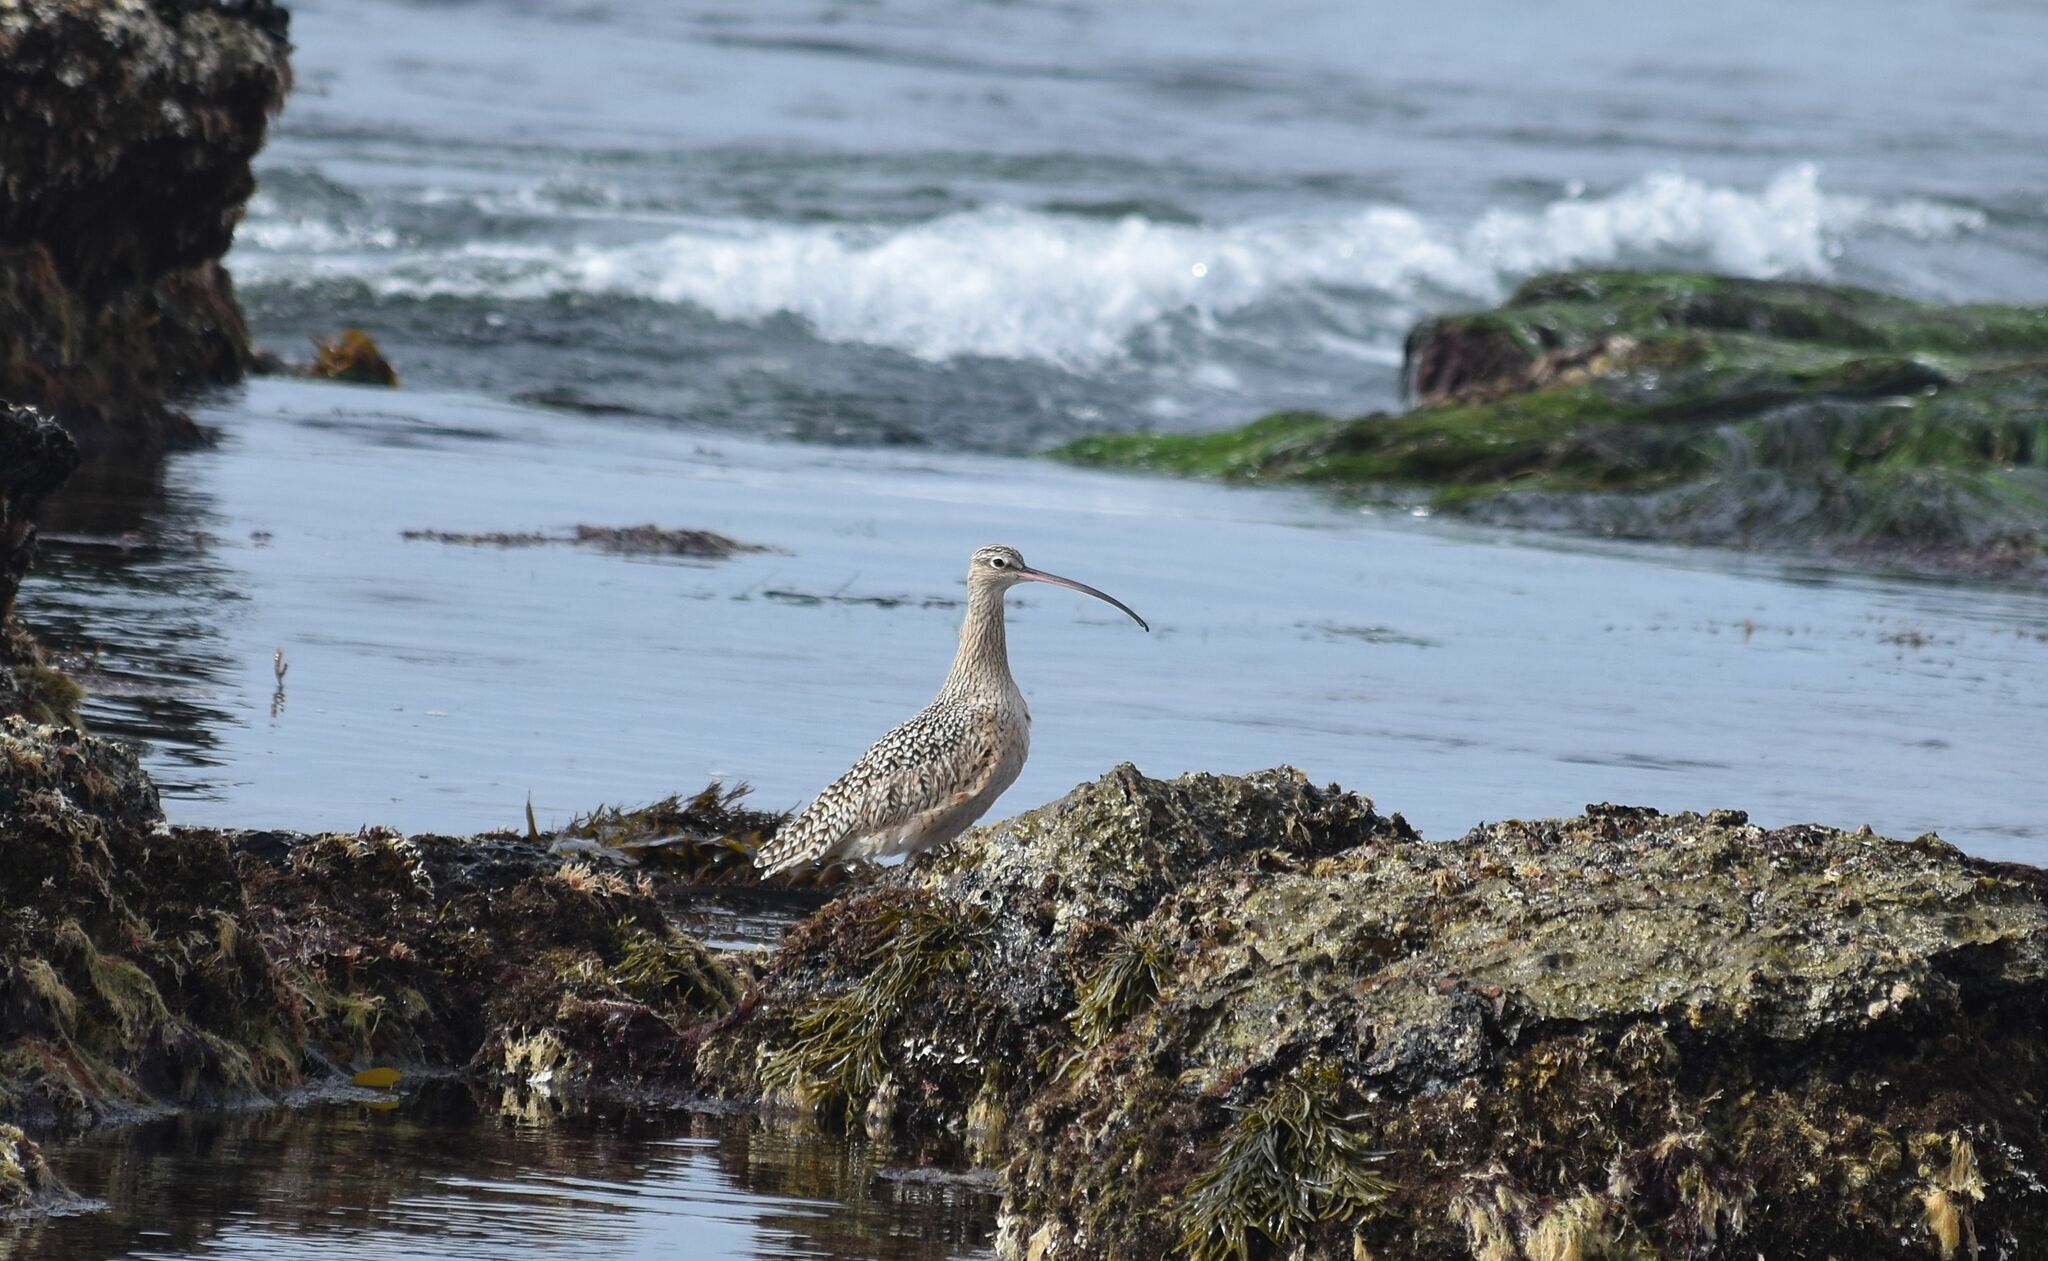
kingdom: Animalia
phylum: Chordata
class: Aves
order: Charadriiformes
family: Scolopacidae
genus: Numenius
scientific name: Numenius americanus
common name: Long-billed curlew
